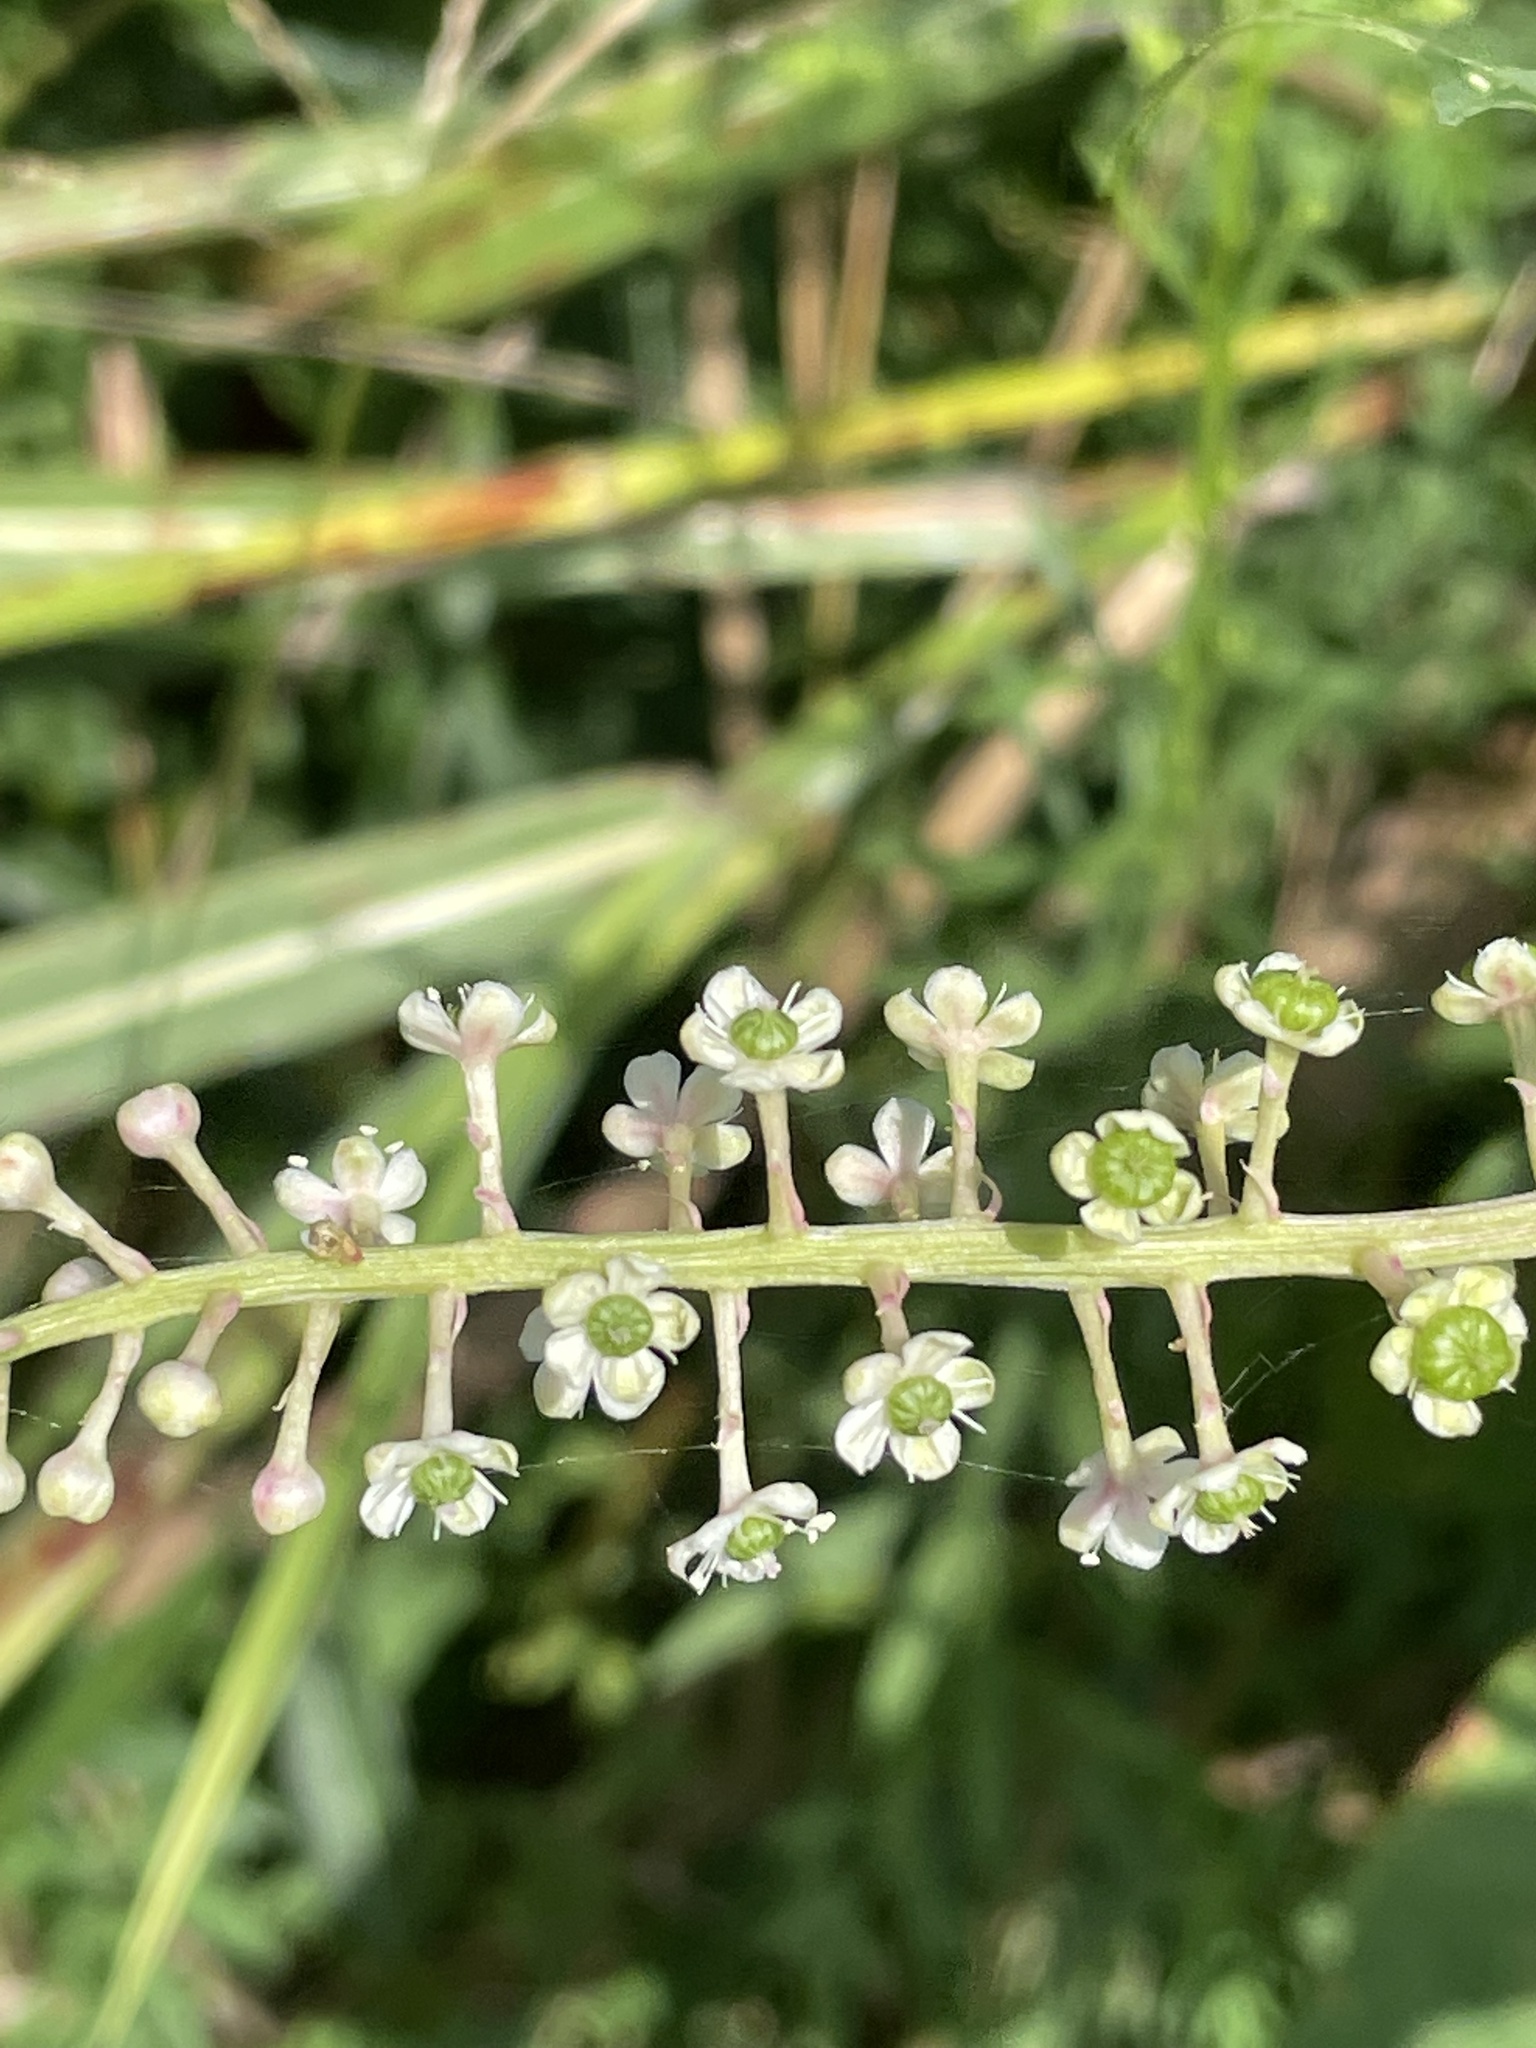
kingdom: Plantae
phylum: Tracheophyta
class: Magnoliopsida
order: Caryophyllales
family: Phytolaccaceae
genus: Phytolacca
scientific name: Phytolacca americana
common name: American pokeweed
